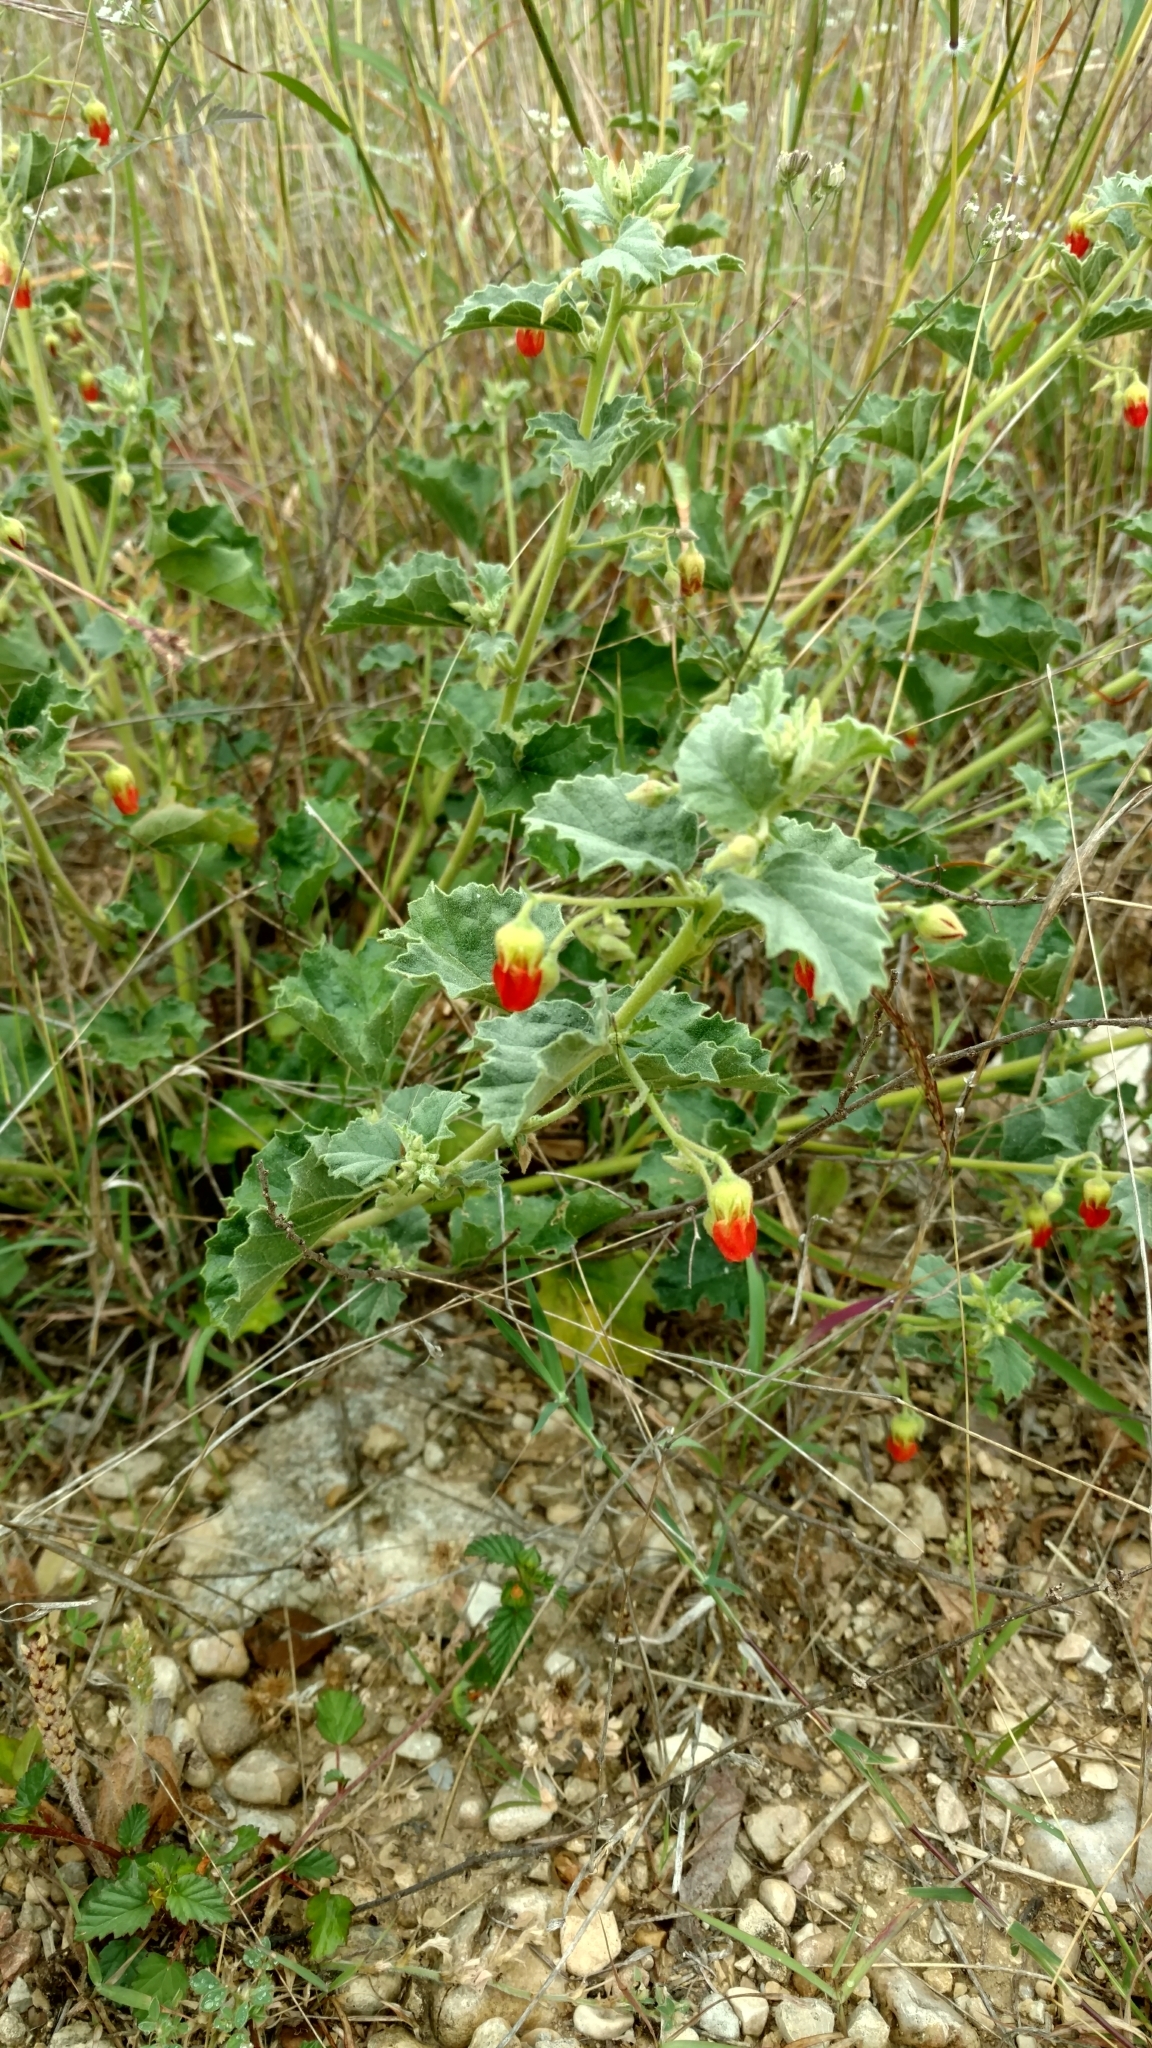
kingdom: Plantae
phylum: Tracheophyta
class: Magnoliopsida
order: Malvales
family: Malvaceae
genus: Hermannia
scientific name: Hermannia texana
